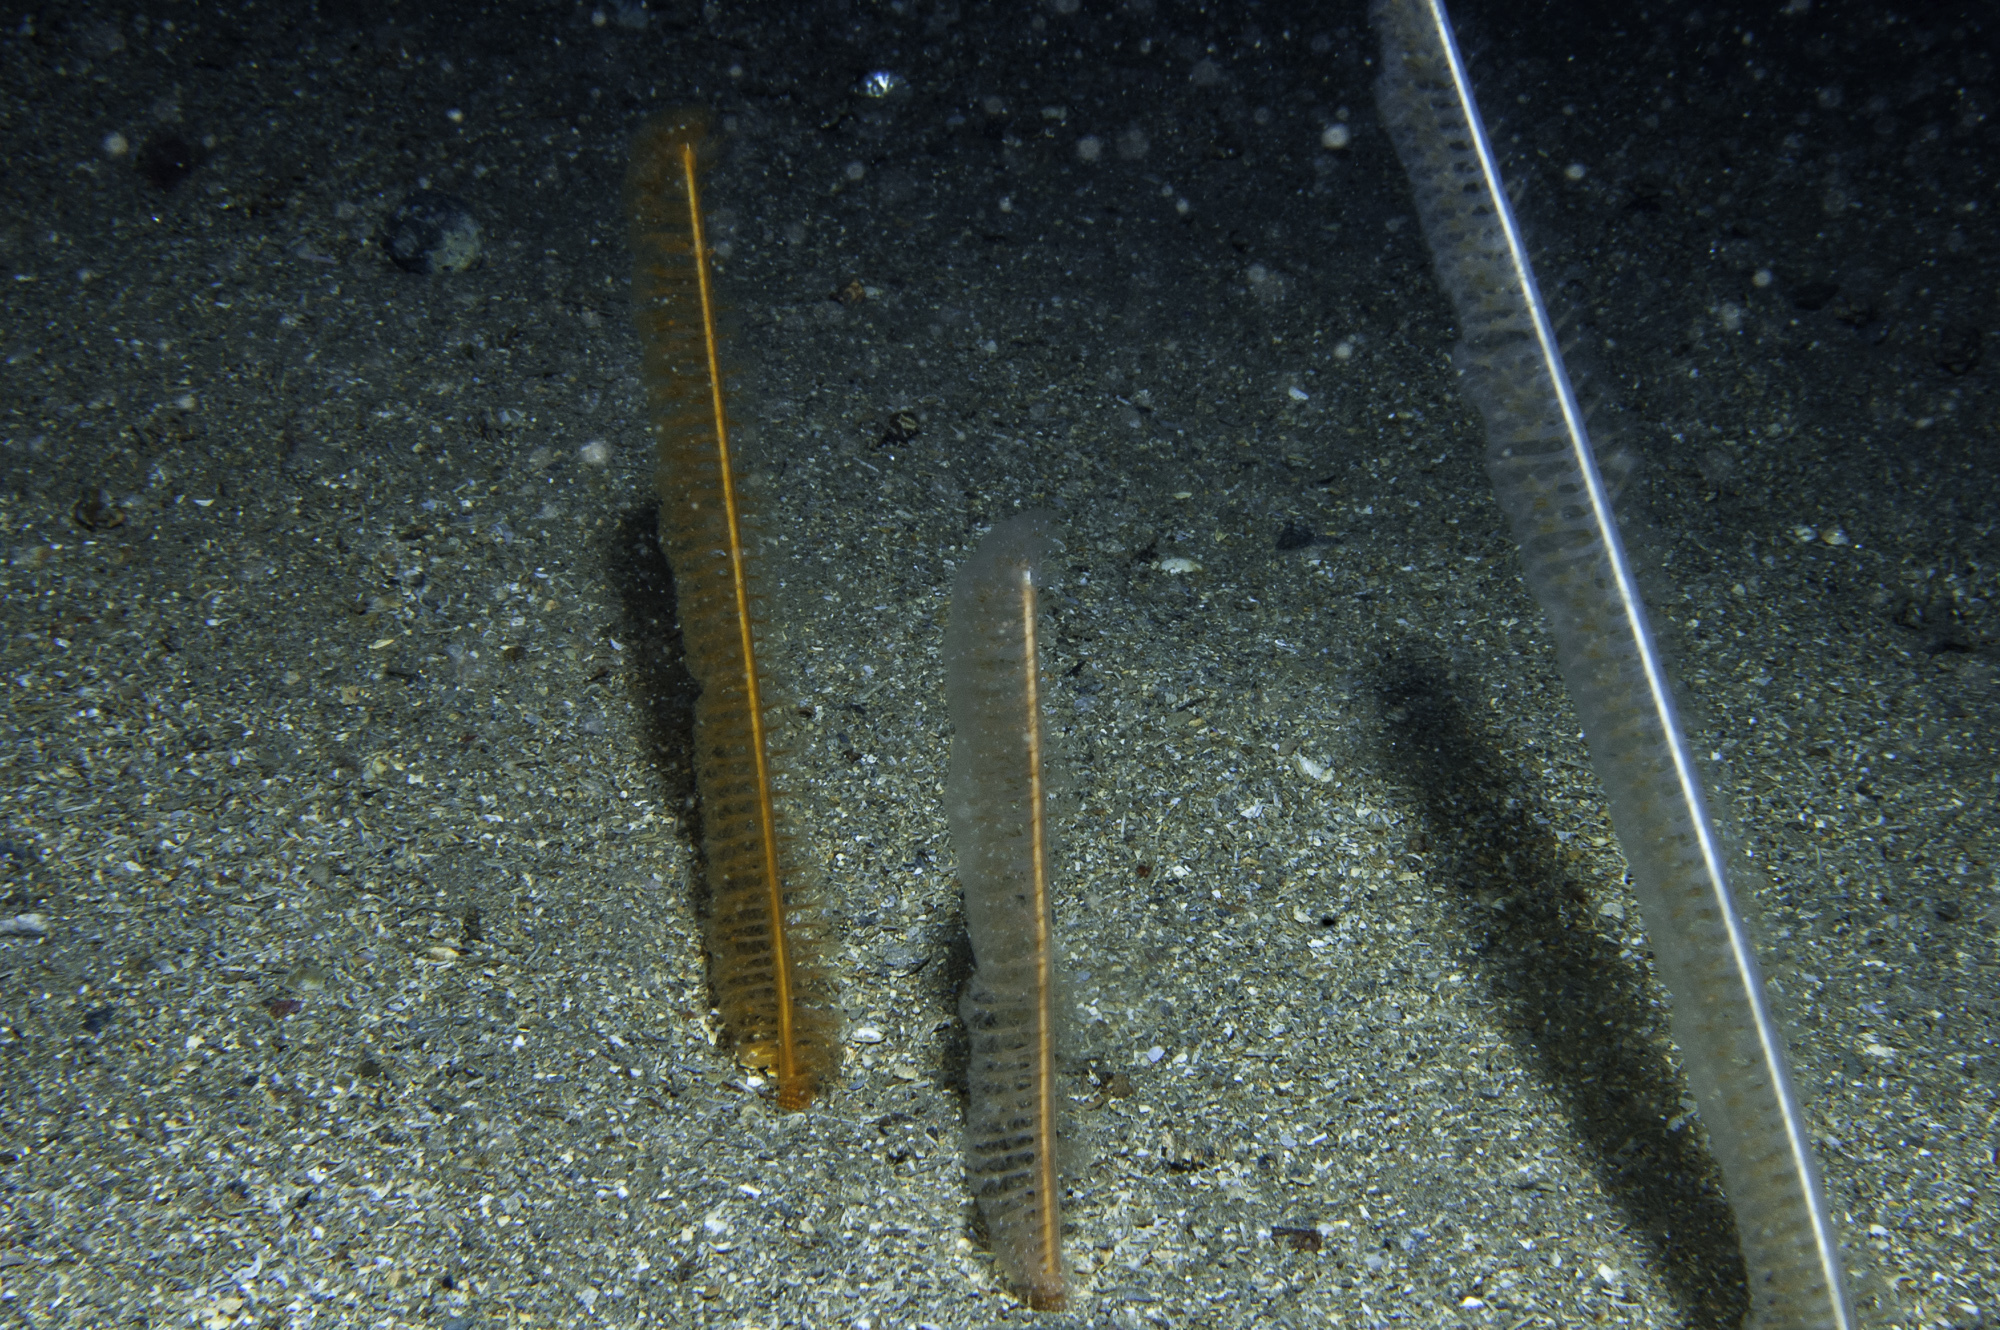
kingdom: Animalia
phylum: Cnidaria
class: Anthozoa
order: Scleralcyonacea
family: Virgulariidae
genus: Virgularia
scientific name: Virgularia mirabilis
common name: Slender sea pen
